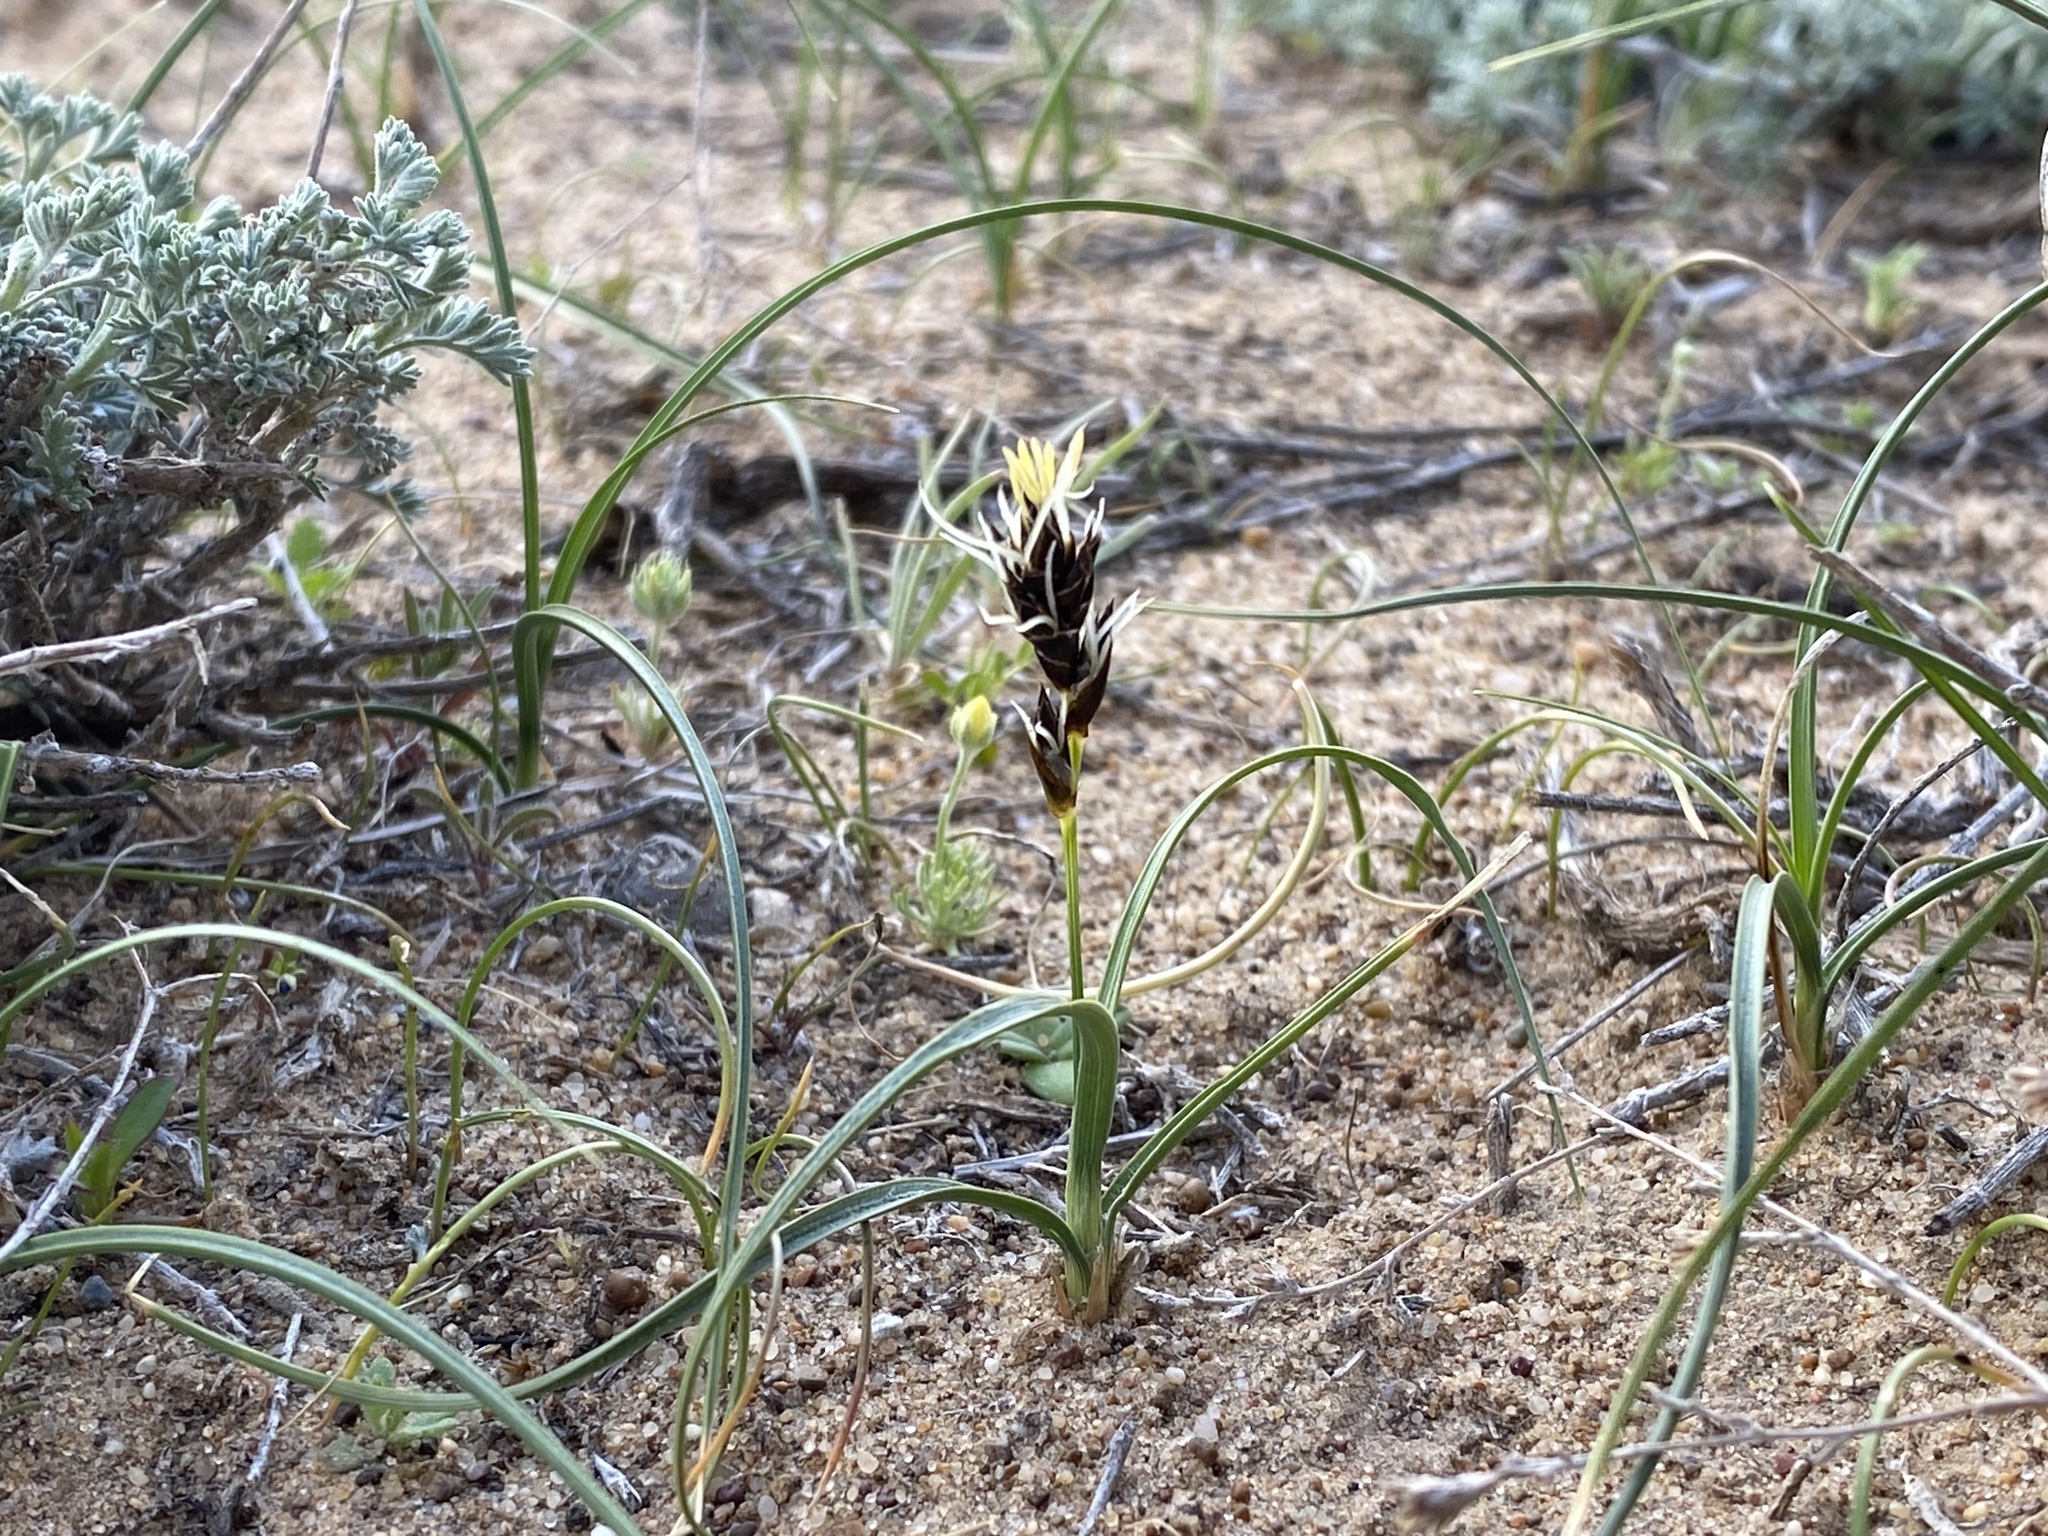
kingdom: Plantae
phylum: Tracheophyta
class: Liliopsida
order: Poales
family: Cyperaceae
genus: Carex
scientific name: Carex stenophylla
